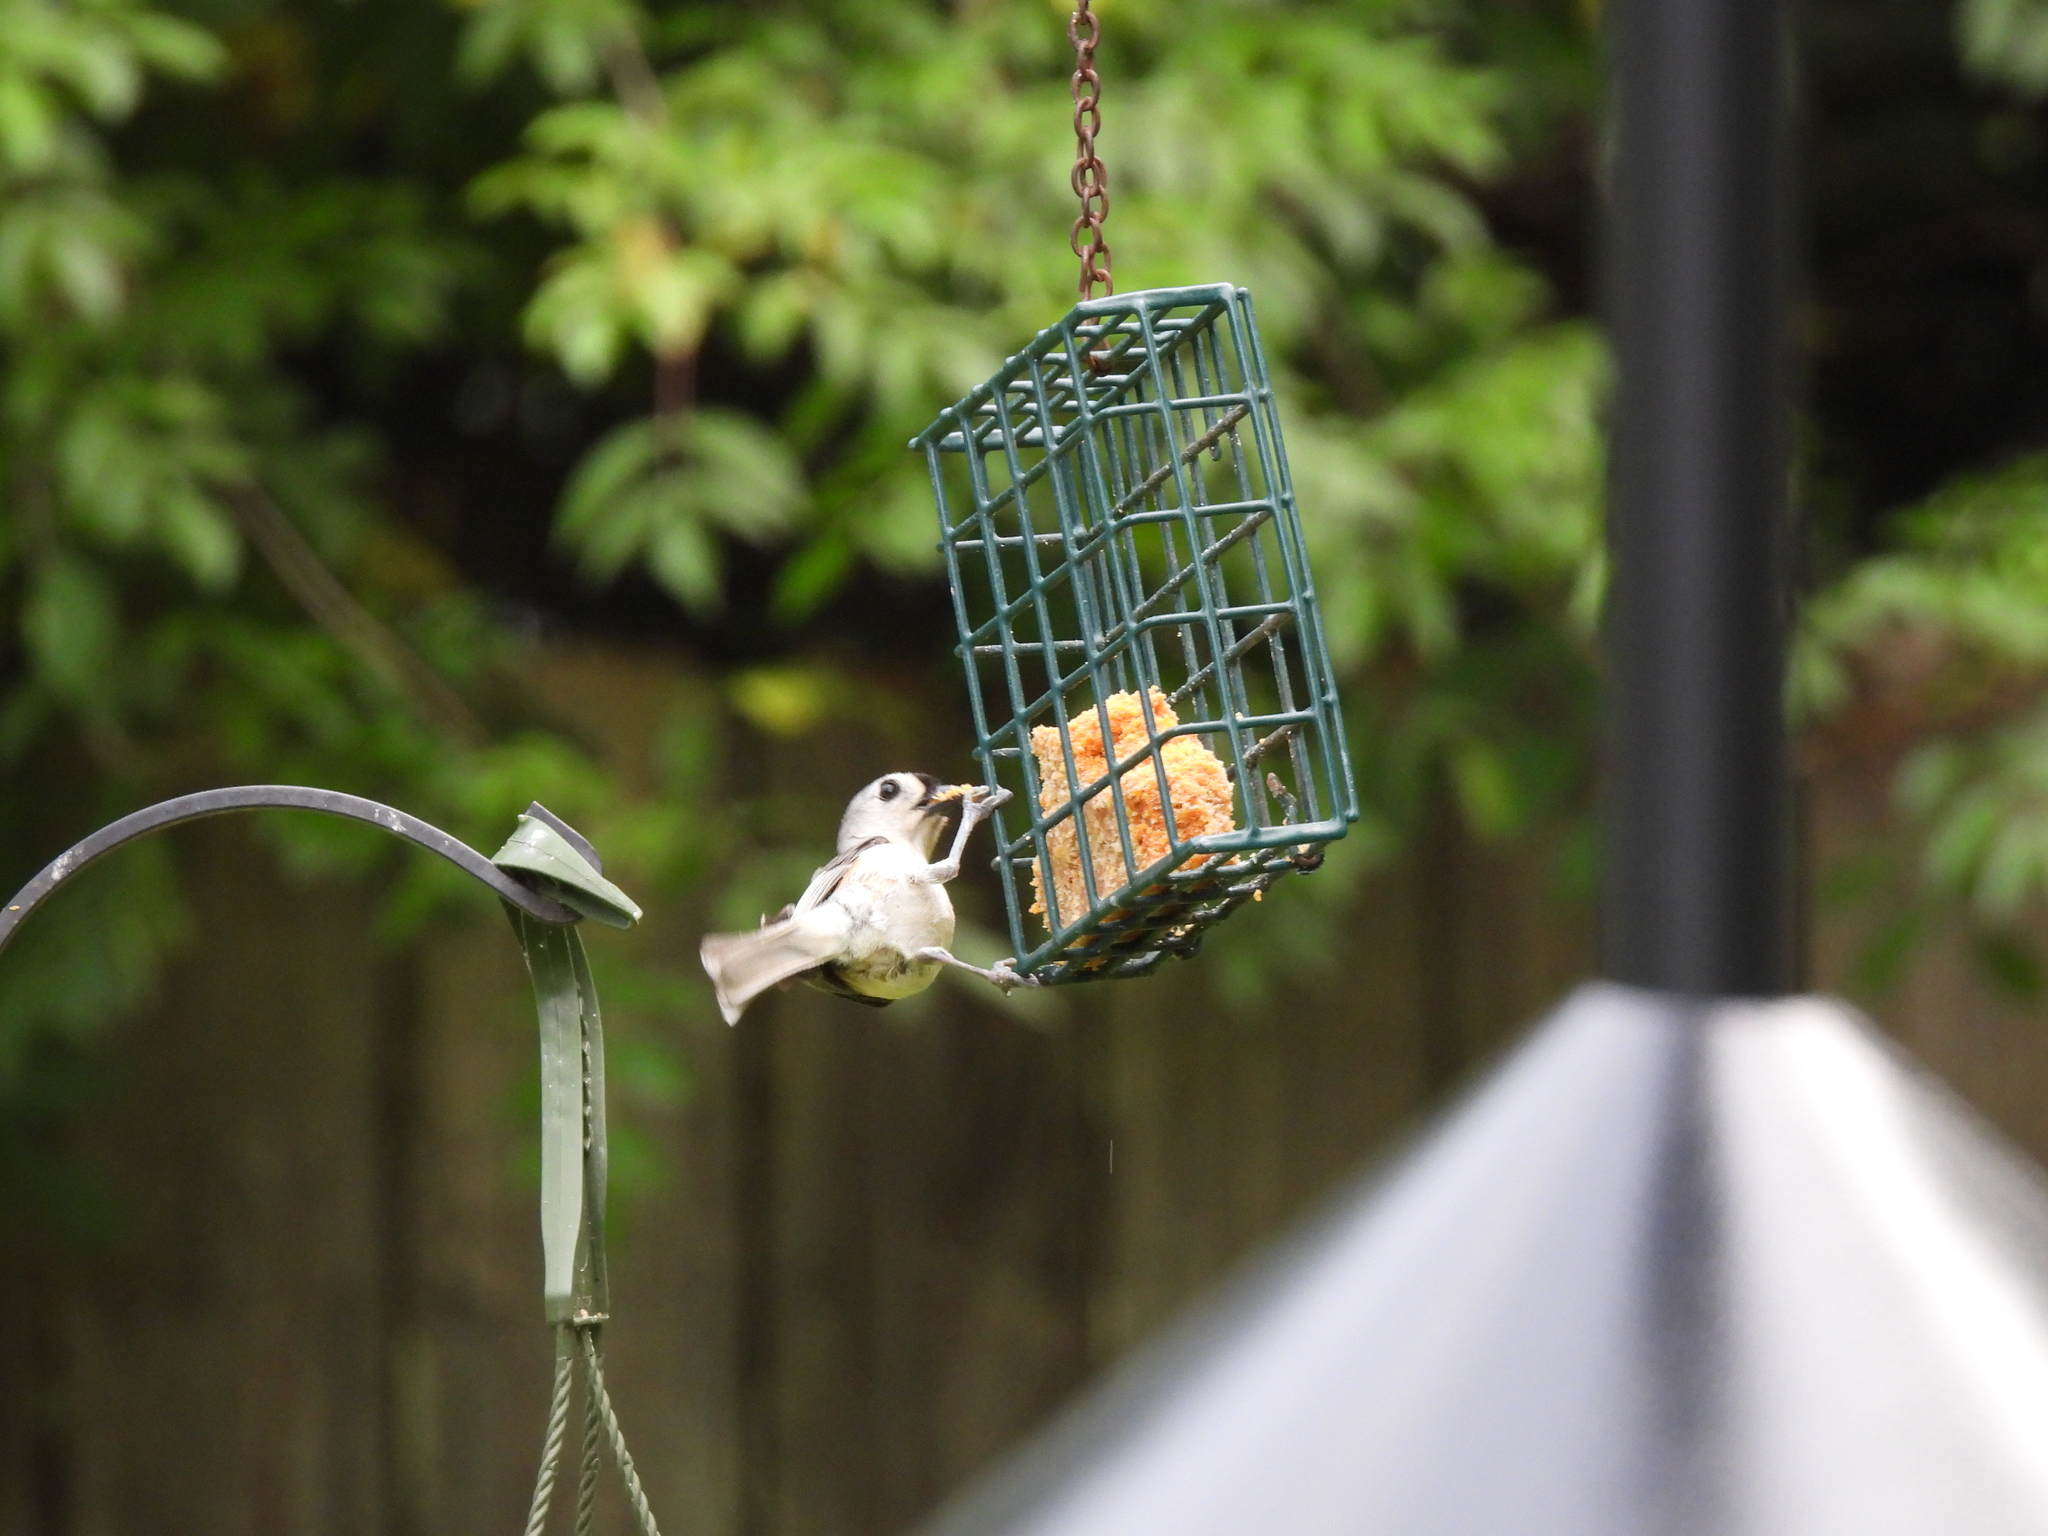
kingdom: Animalia
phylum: Chordata
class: Aves
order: Passeriformes
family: Paridae
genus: Baeolophus
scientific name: Baeolophus bicolor
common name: Tufted titmouse
